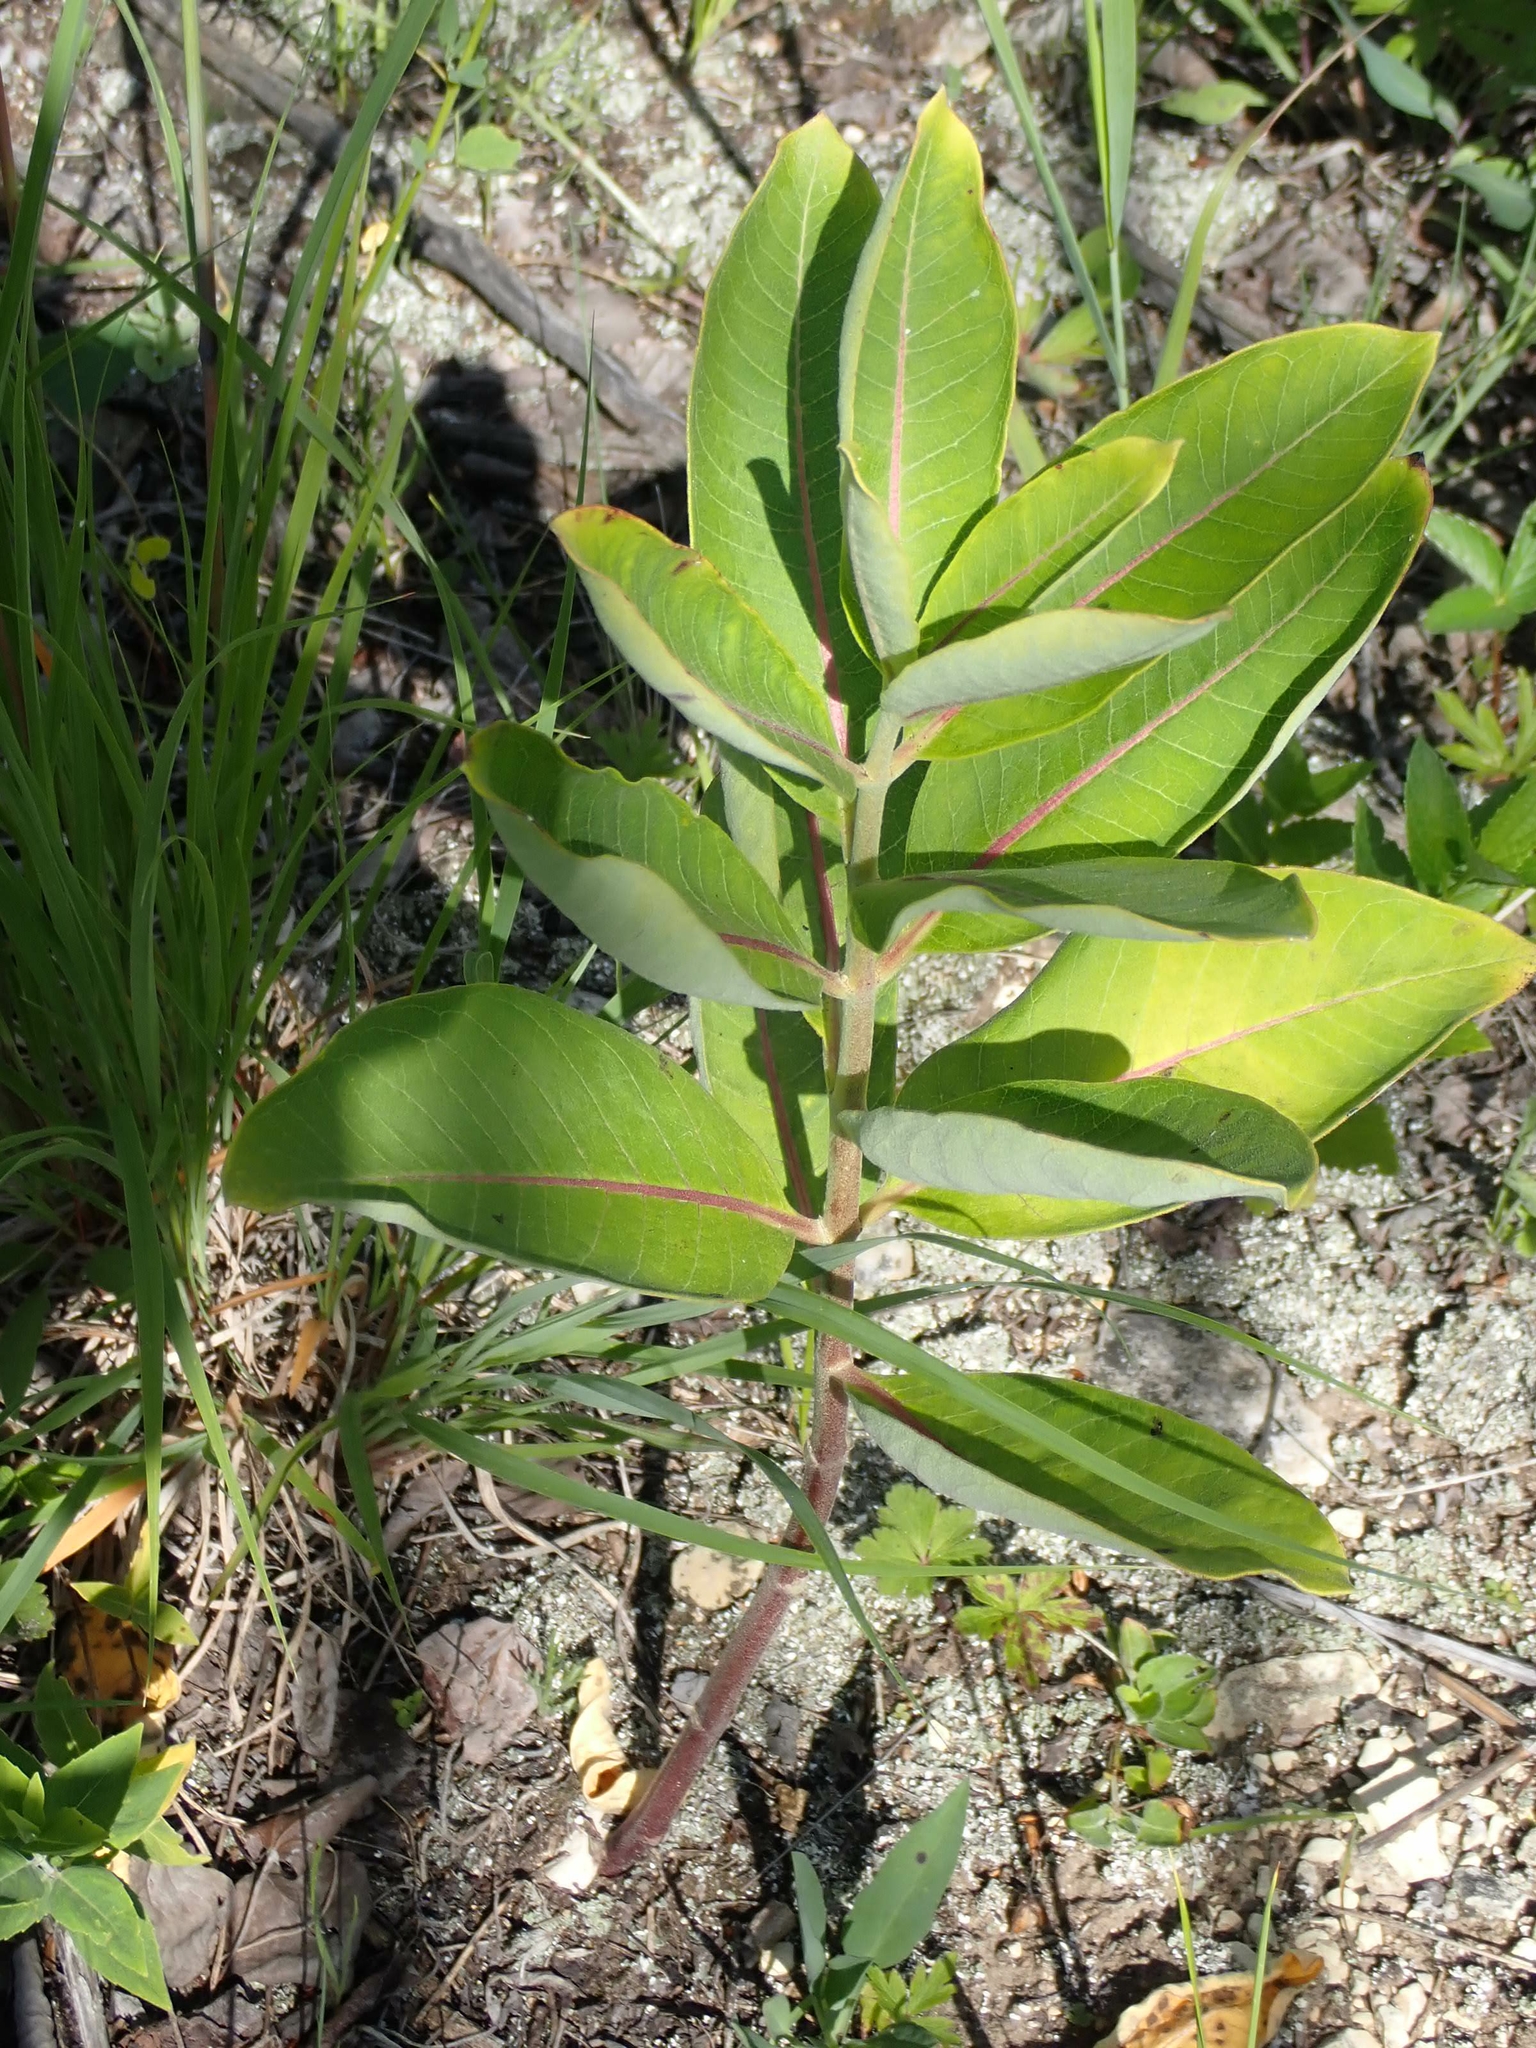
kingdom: Plantae
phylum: Tracheophyta
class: Magnoliopsida
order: Gentianales
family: Apocynaceae
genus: Asclepias
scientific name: Asclepias syriaca
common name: Common milkweed
